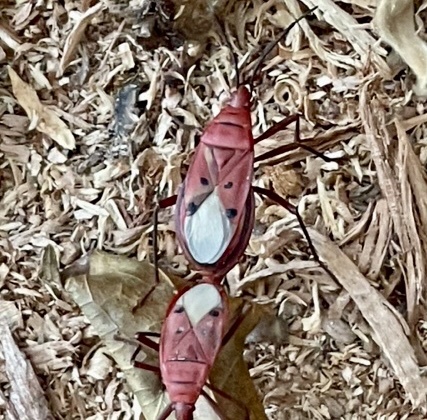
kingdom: Animalia
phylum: Arthropoda
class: Insecta
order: Hemiptera
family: Pyrrhocoridae
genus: Probergrothius
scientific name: Probergrothius
